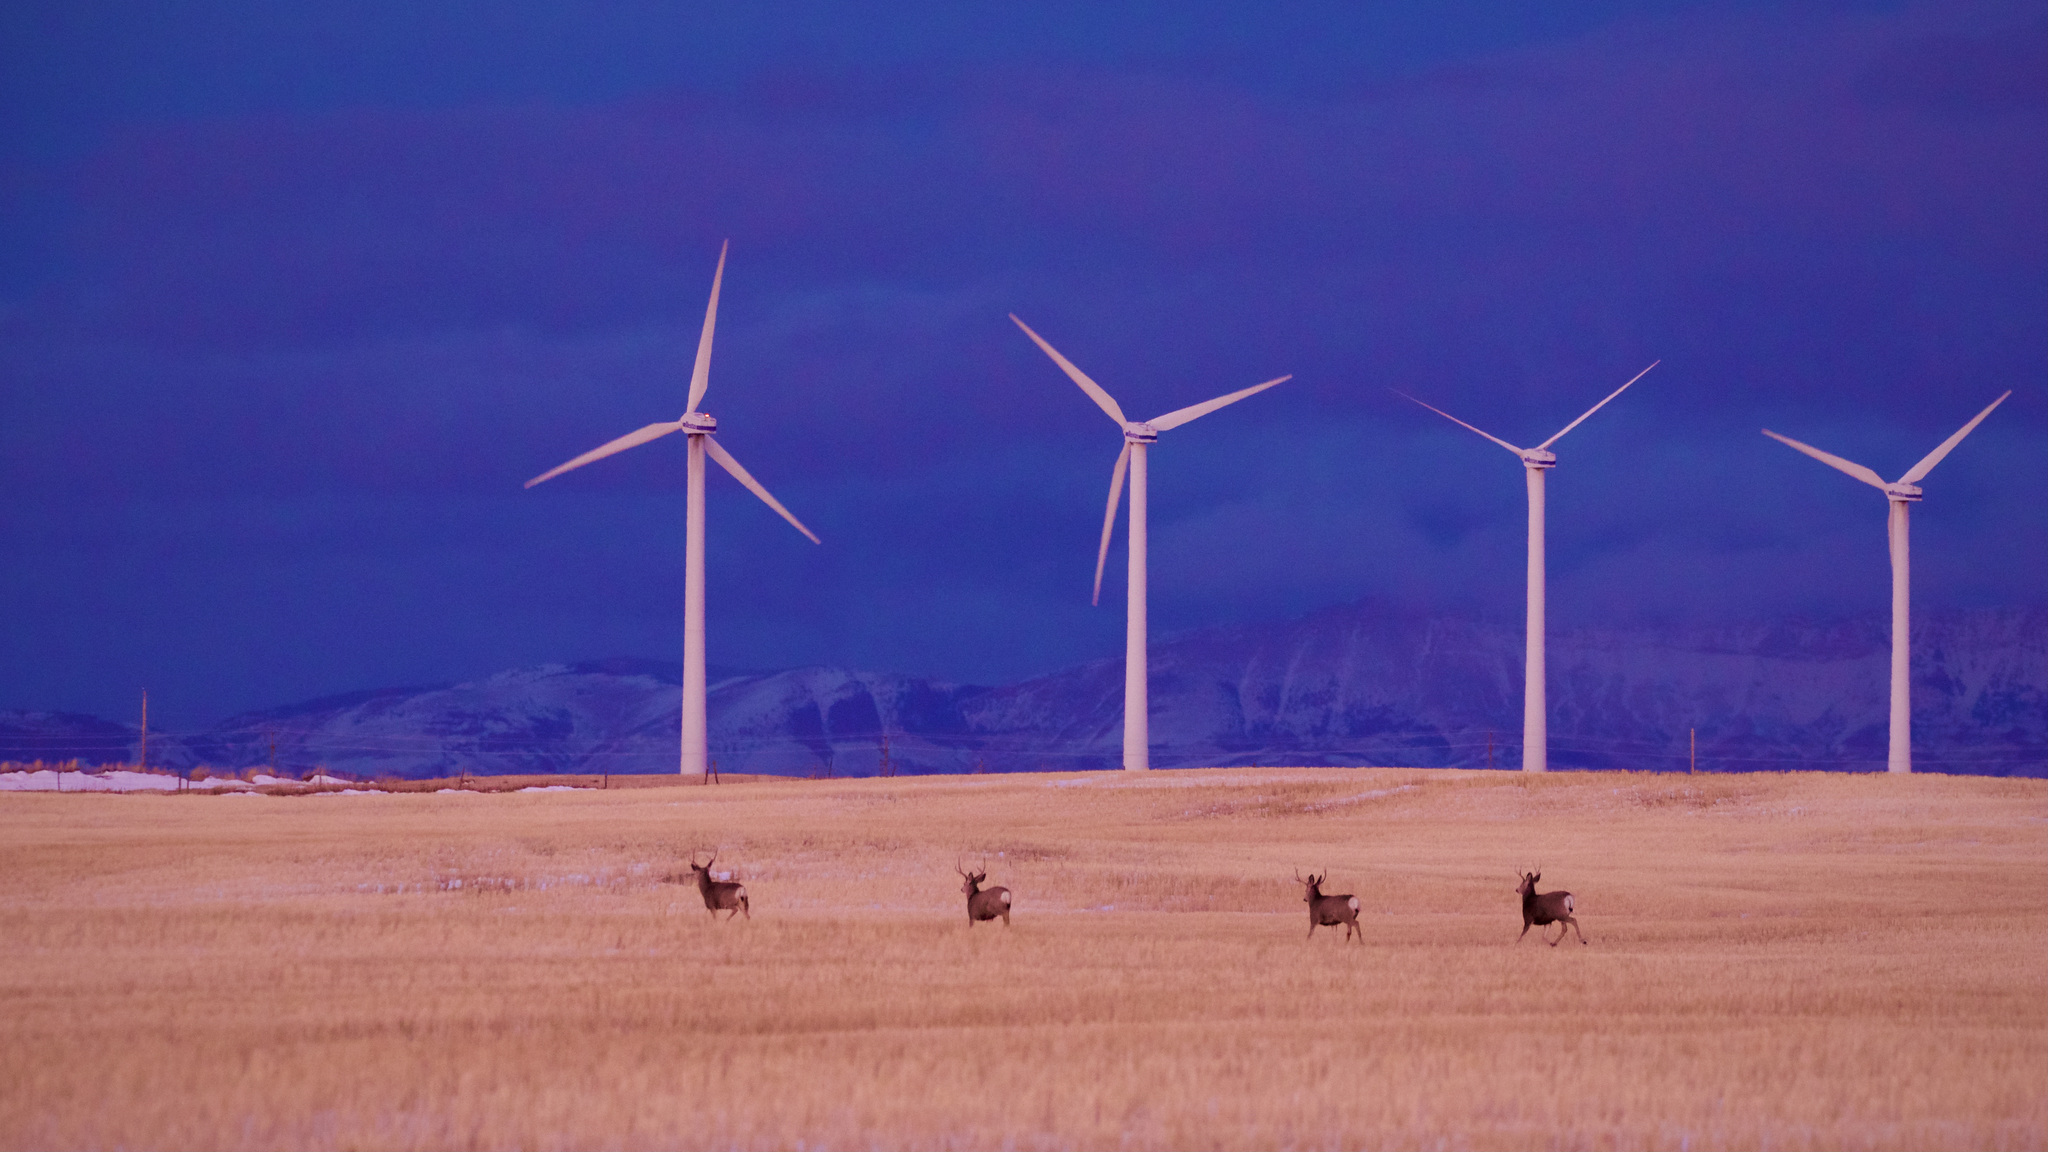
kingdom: Animalia
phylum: Chordata
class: Mammalia
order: Artiodactyla
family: Cervidae
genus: Odocoileus
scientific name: Odocoileus hemionus
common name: Mule deer
